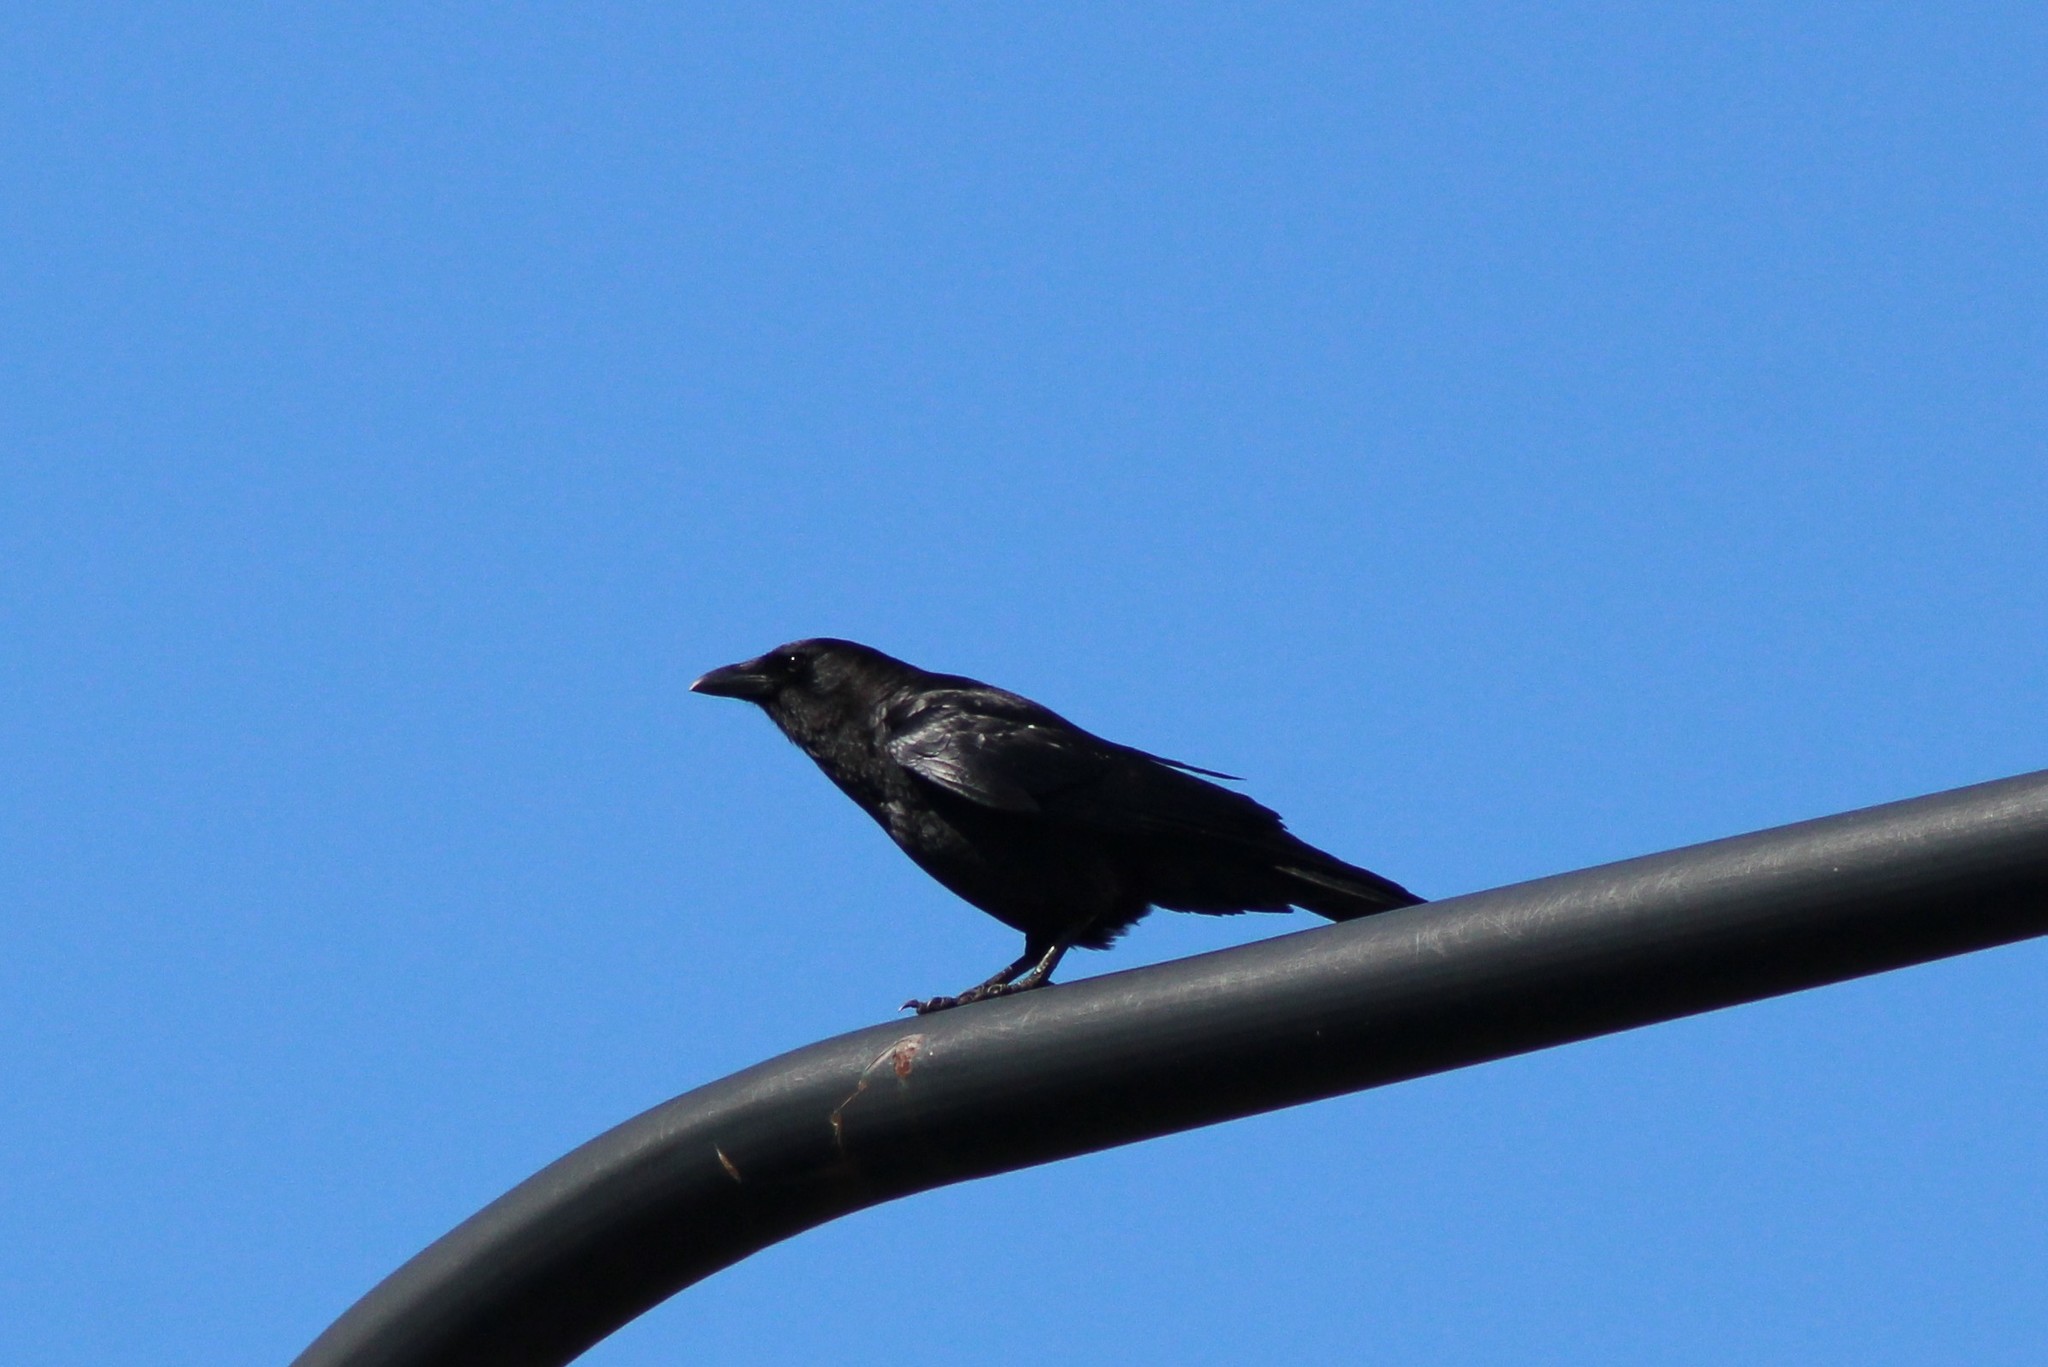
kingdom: Animalia
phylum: Chordata
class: Aves
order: Passeriformes
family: Corvidae
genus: Corvus
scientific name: Corvus brachyrhynchos
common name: American crow
